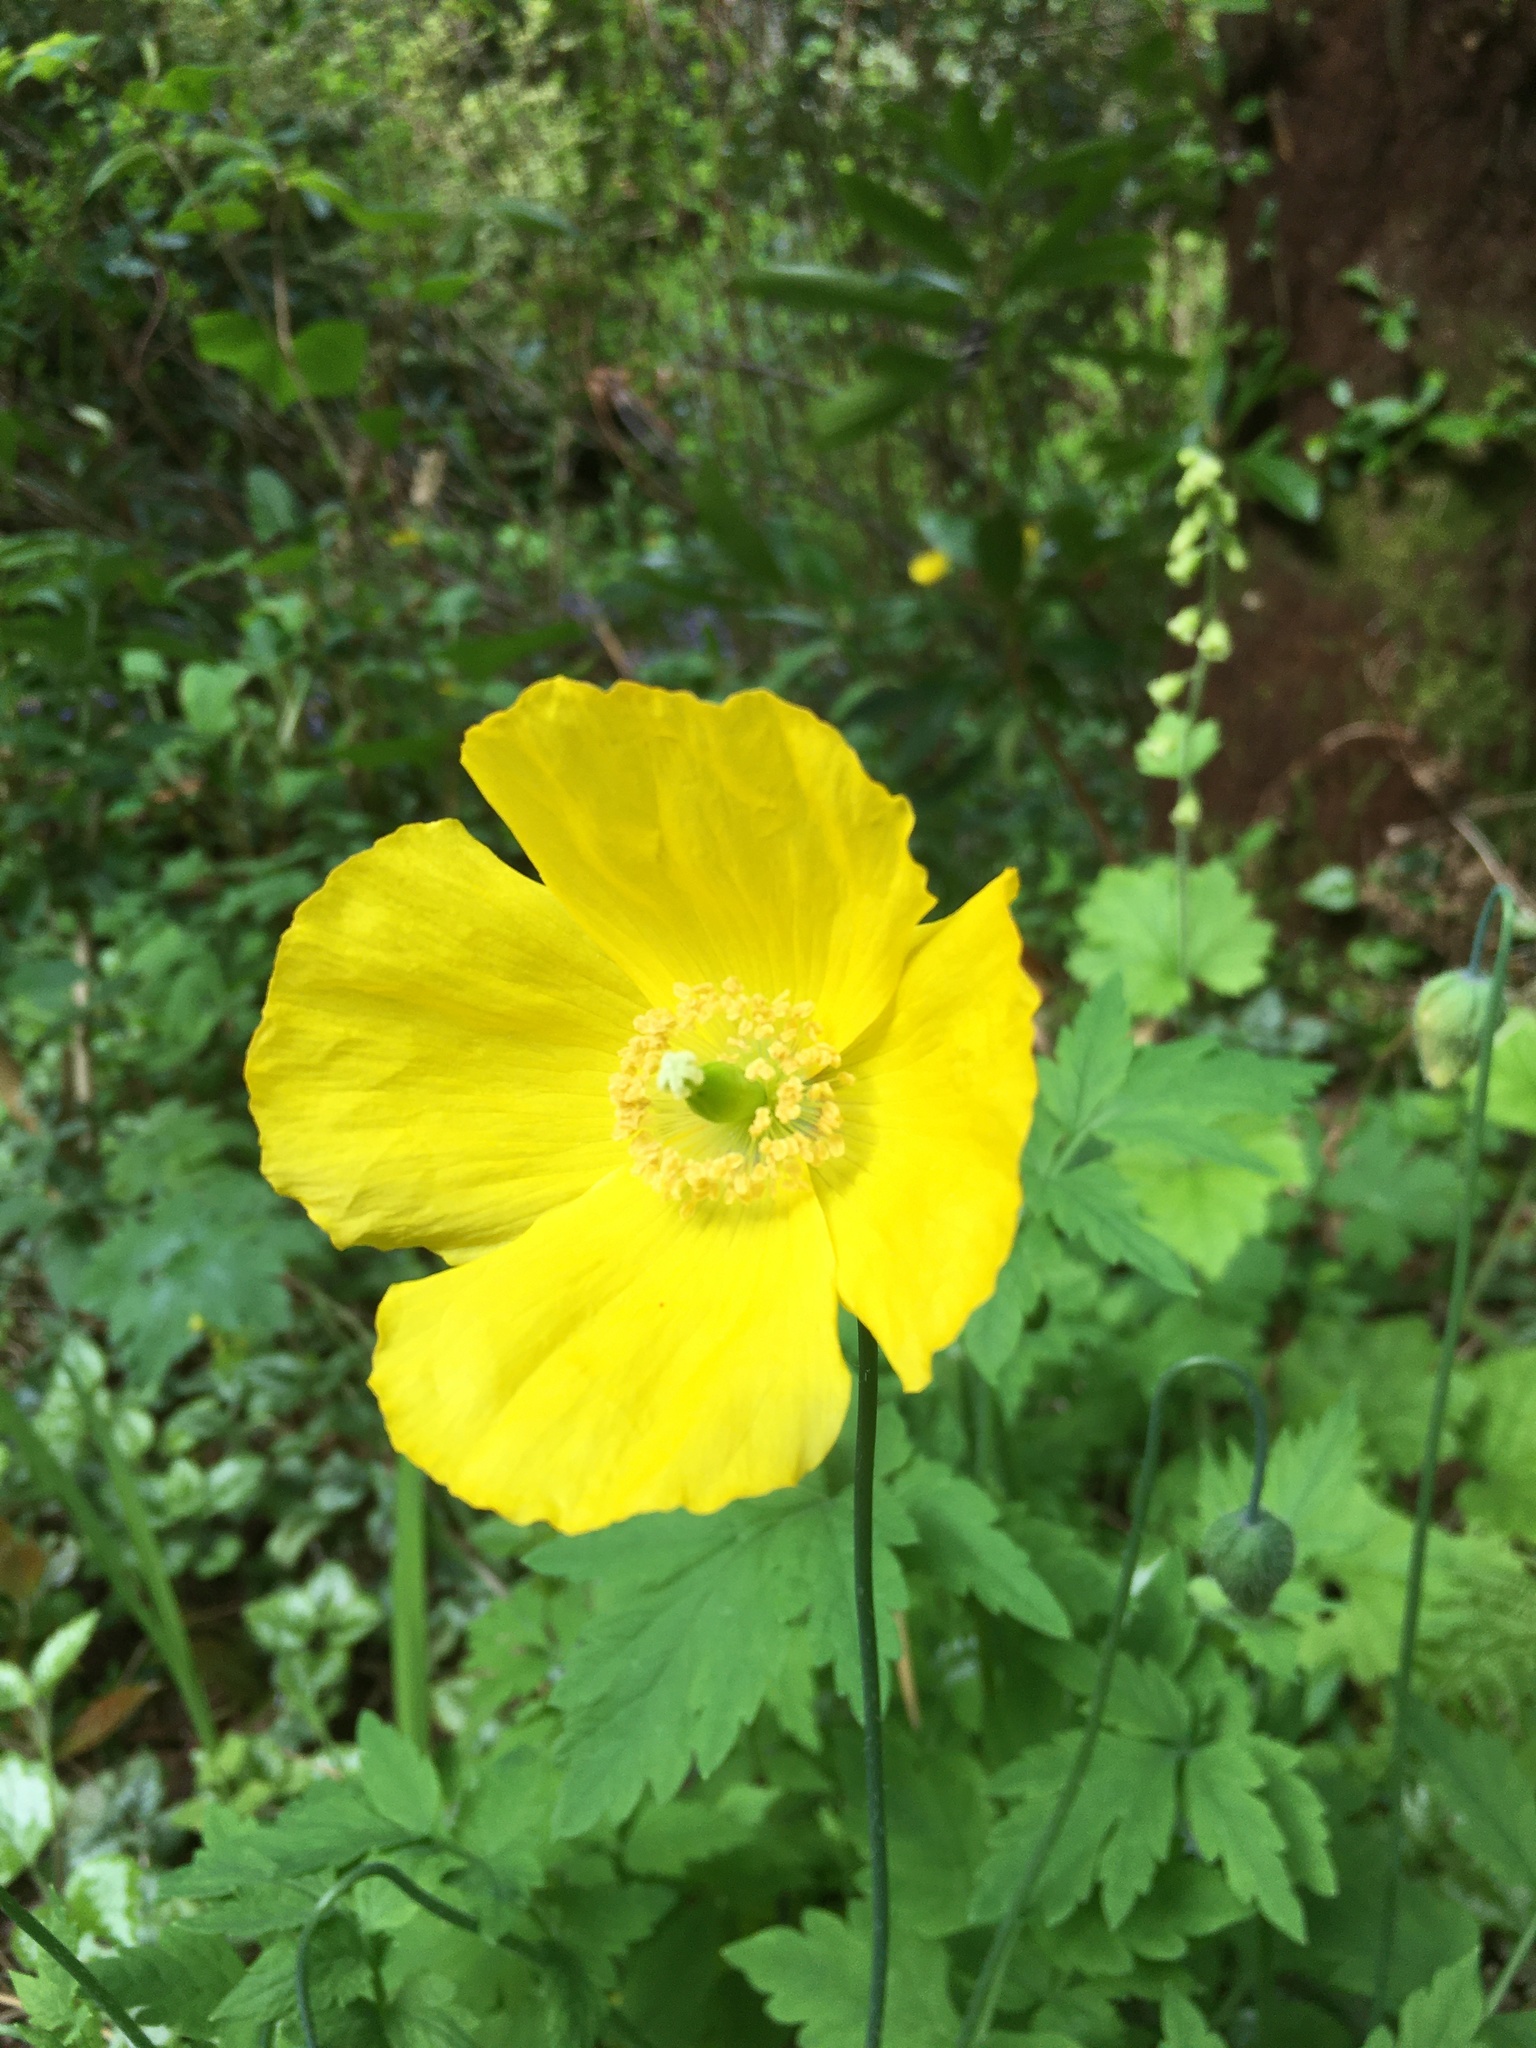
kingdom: Plantae
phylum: Tracheophyta
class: Magnoliopsida
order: Ranunculales
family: Papaveraceae
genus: Papaver
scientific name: Papaver cambricum
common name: Poppy
